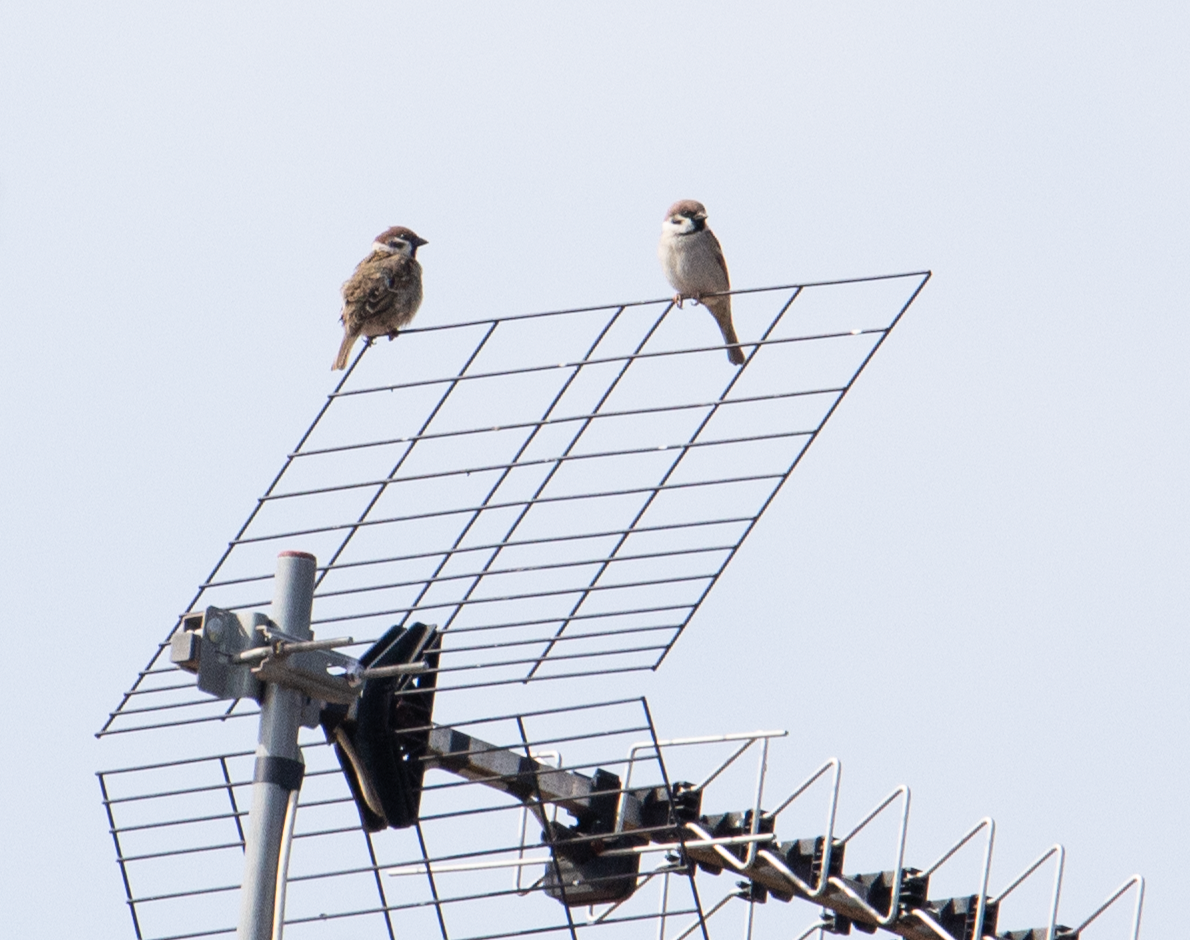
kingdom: Animalia
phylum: Chordata
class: Aves
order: Passeriformes
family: Passeridae
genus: Passer
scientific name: Passer montanus
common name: Eurasian tree sparrow
